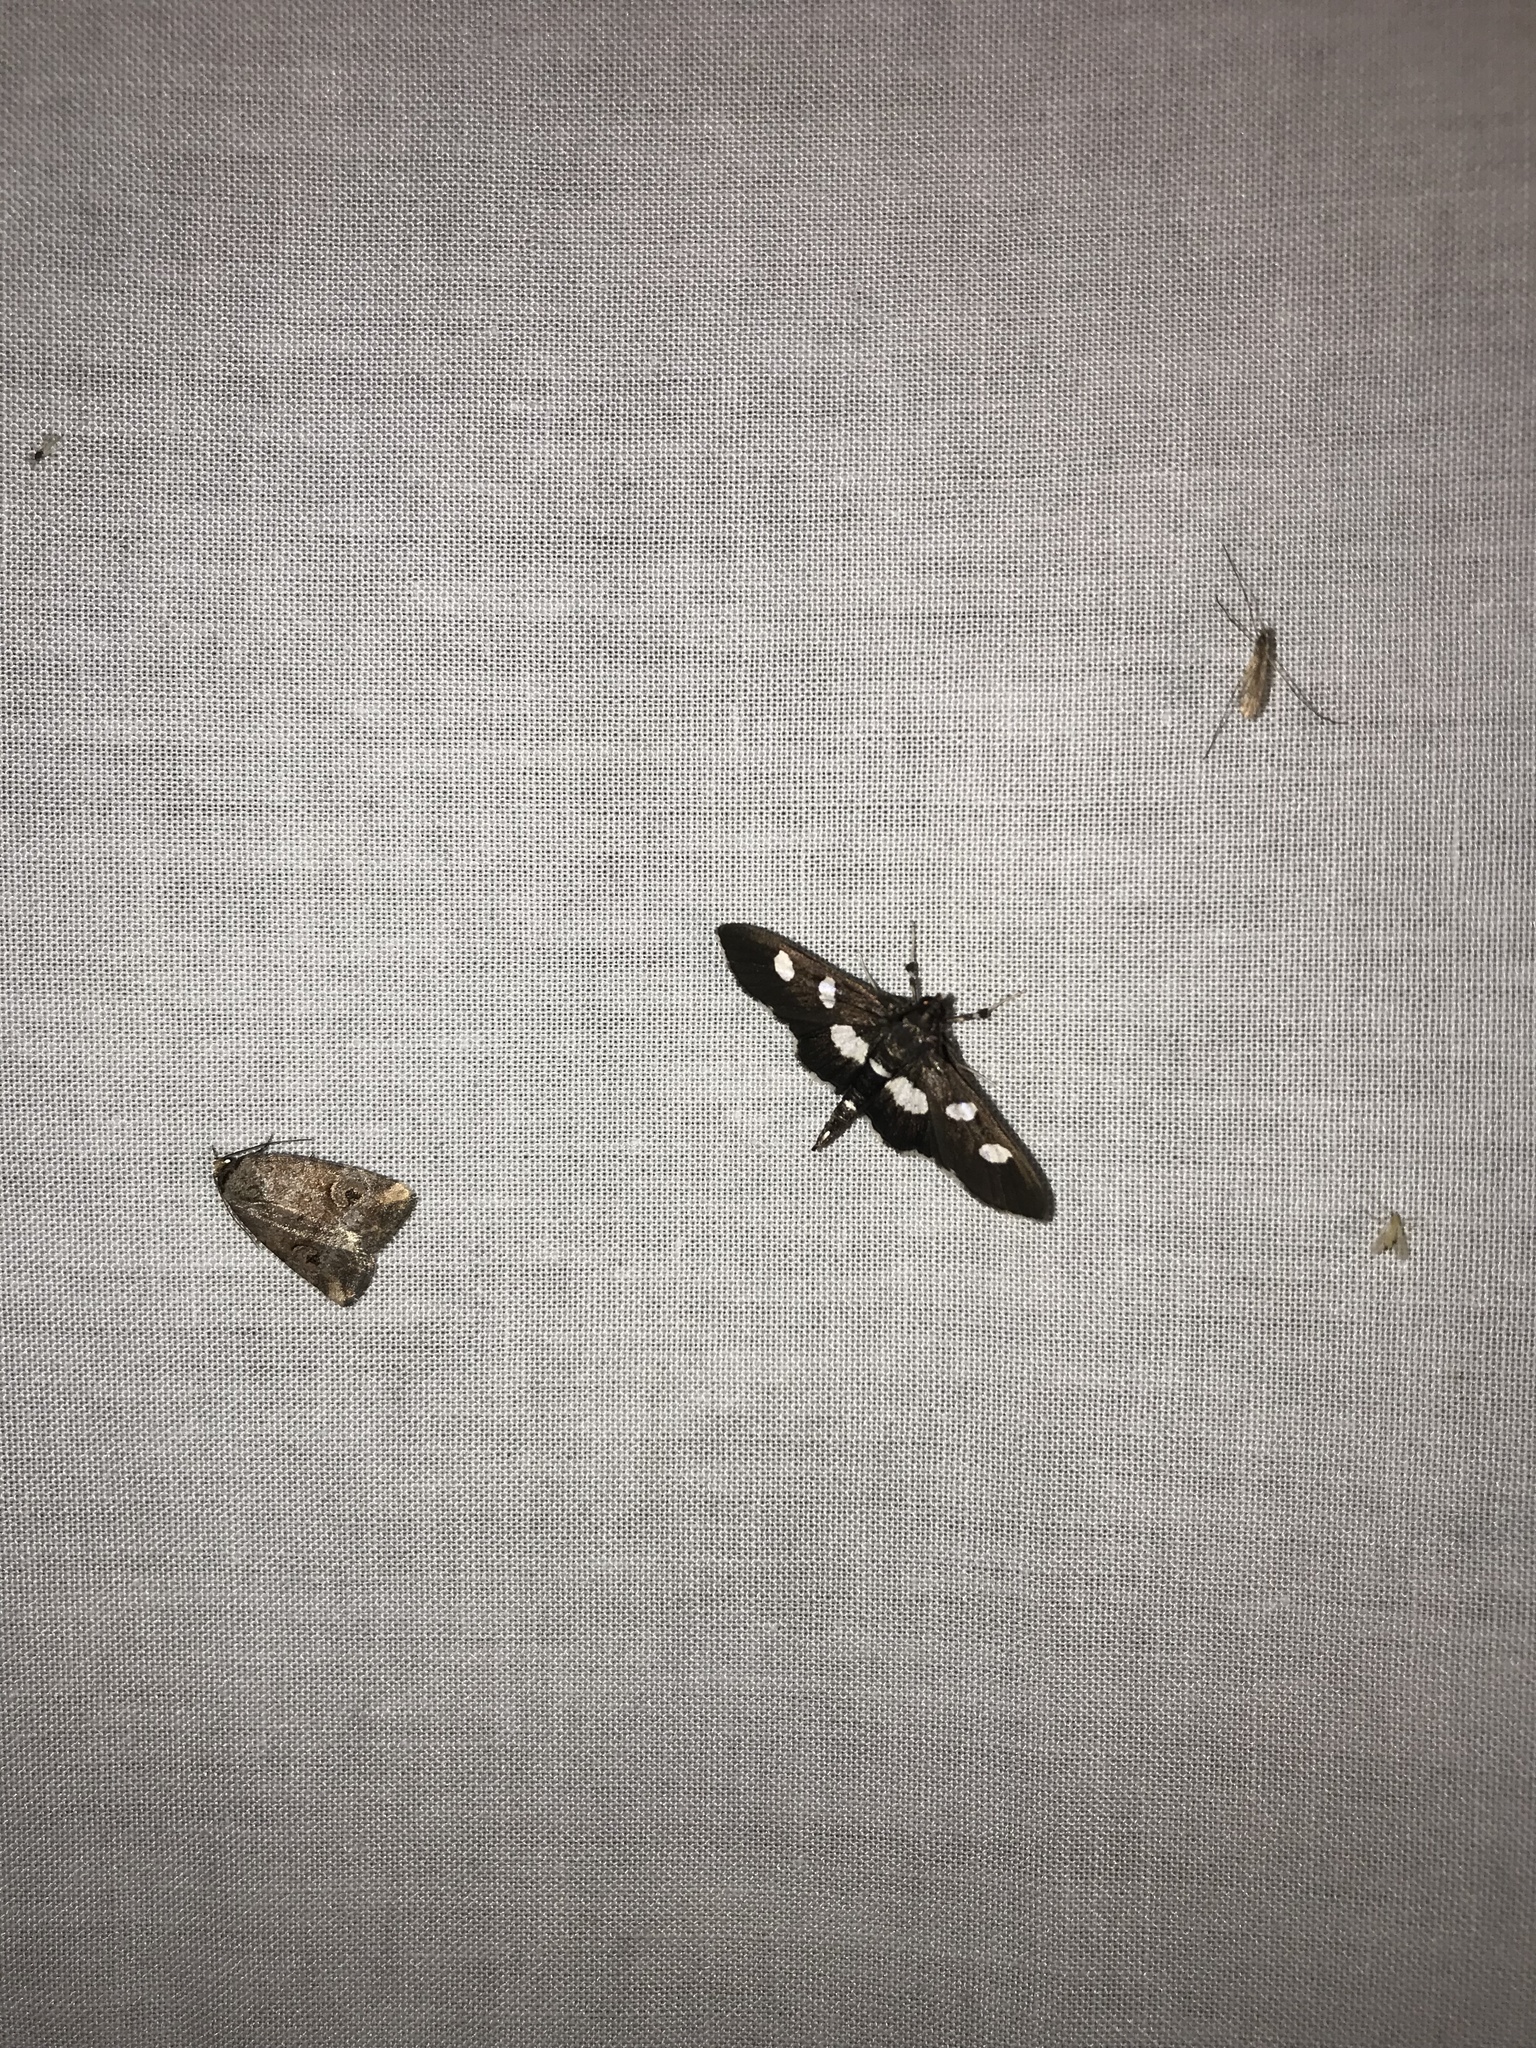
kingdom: Animalia
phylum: Arthropoda
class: Insecta
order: Lepidoptera
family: Crambidae
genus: Desmia
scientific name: Desmia funeralis
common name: Grape leaf folder moth
